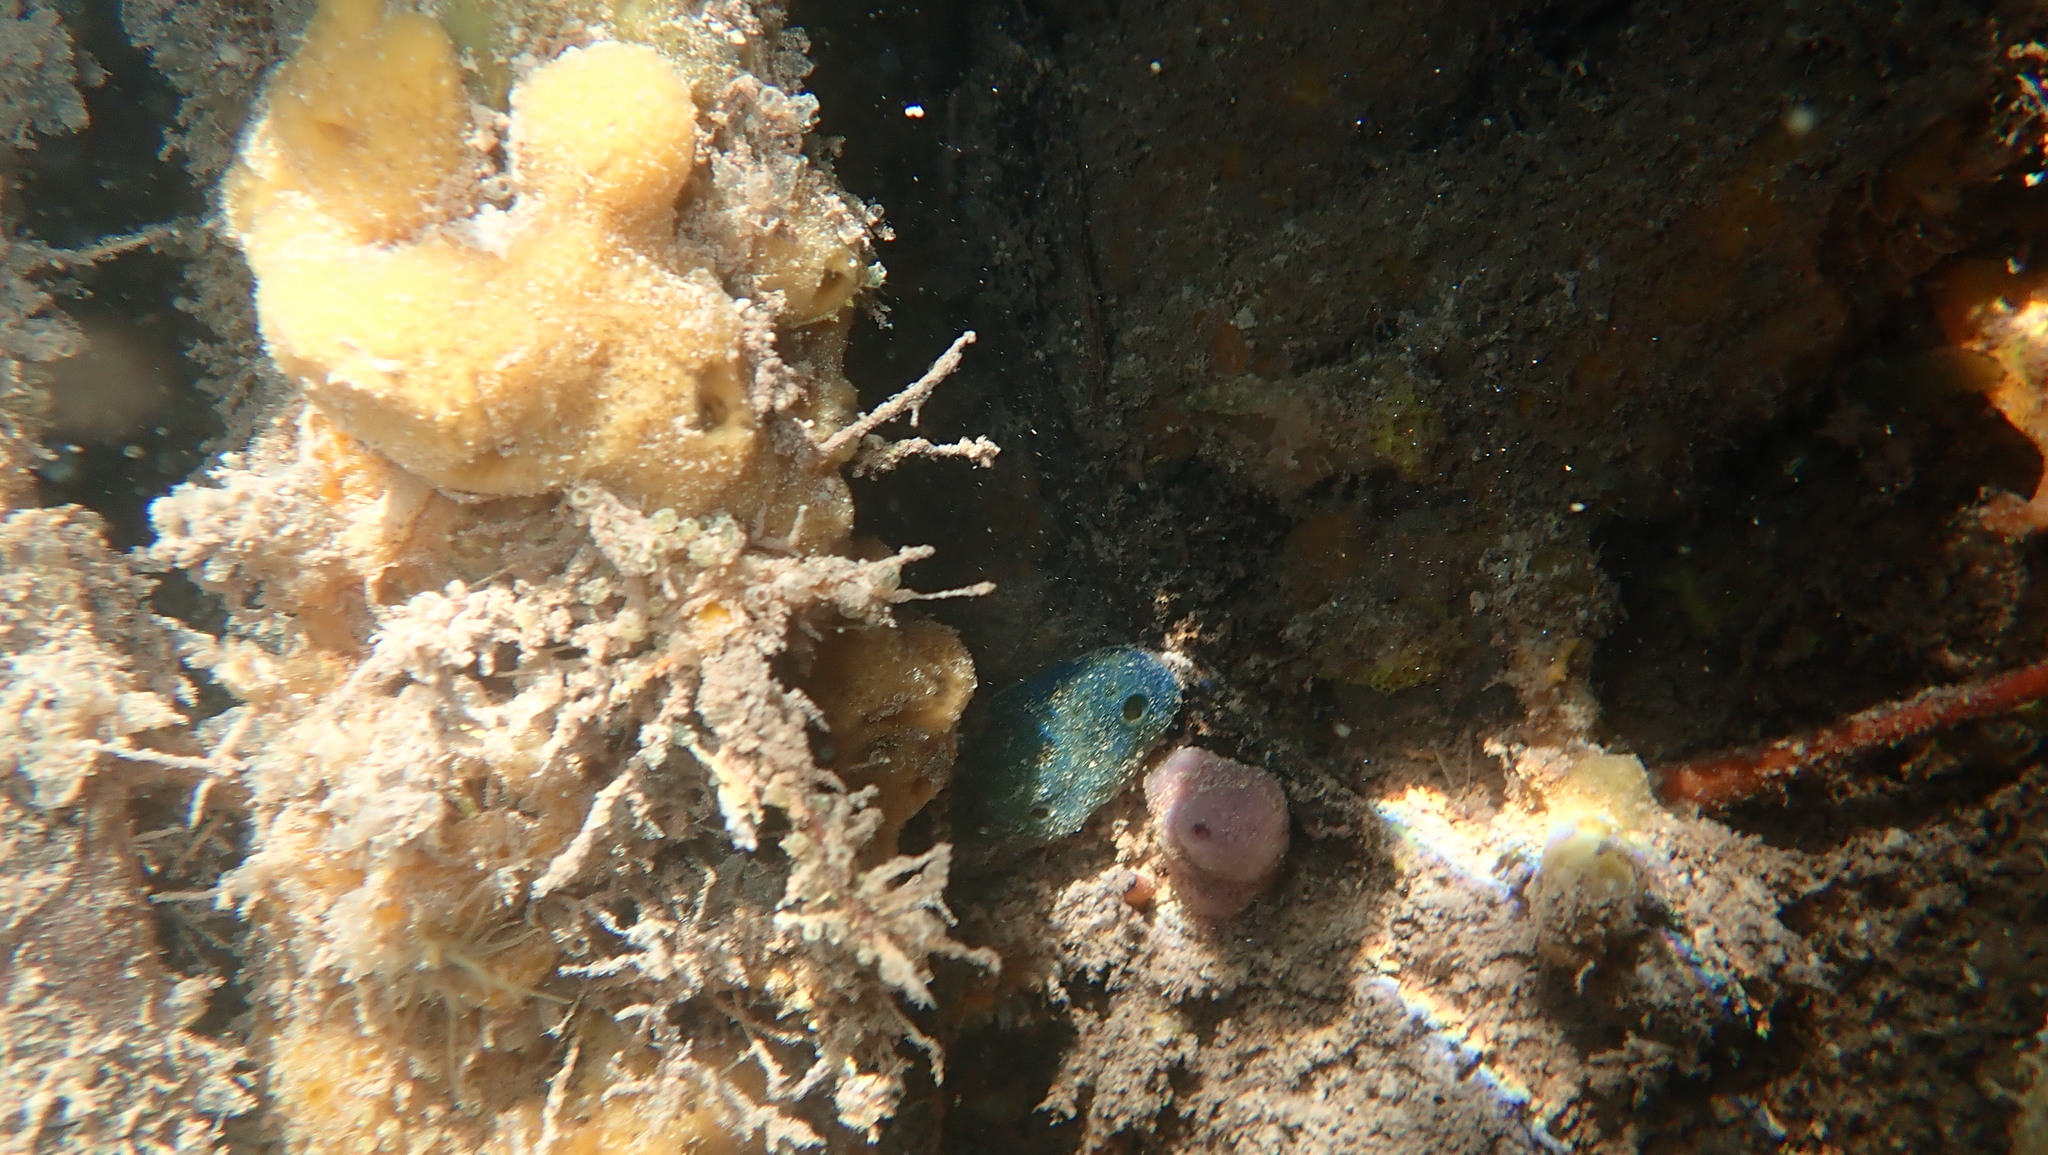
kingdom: Animalia
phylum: Porifera
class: Demospongiae
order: Haplosclerida
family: Chalinidae
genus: Haliclona
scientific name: Haliclona curacaoensis
